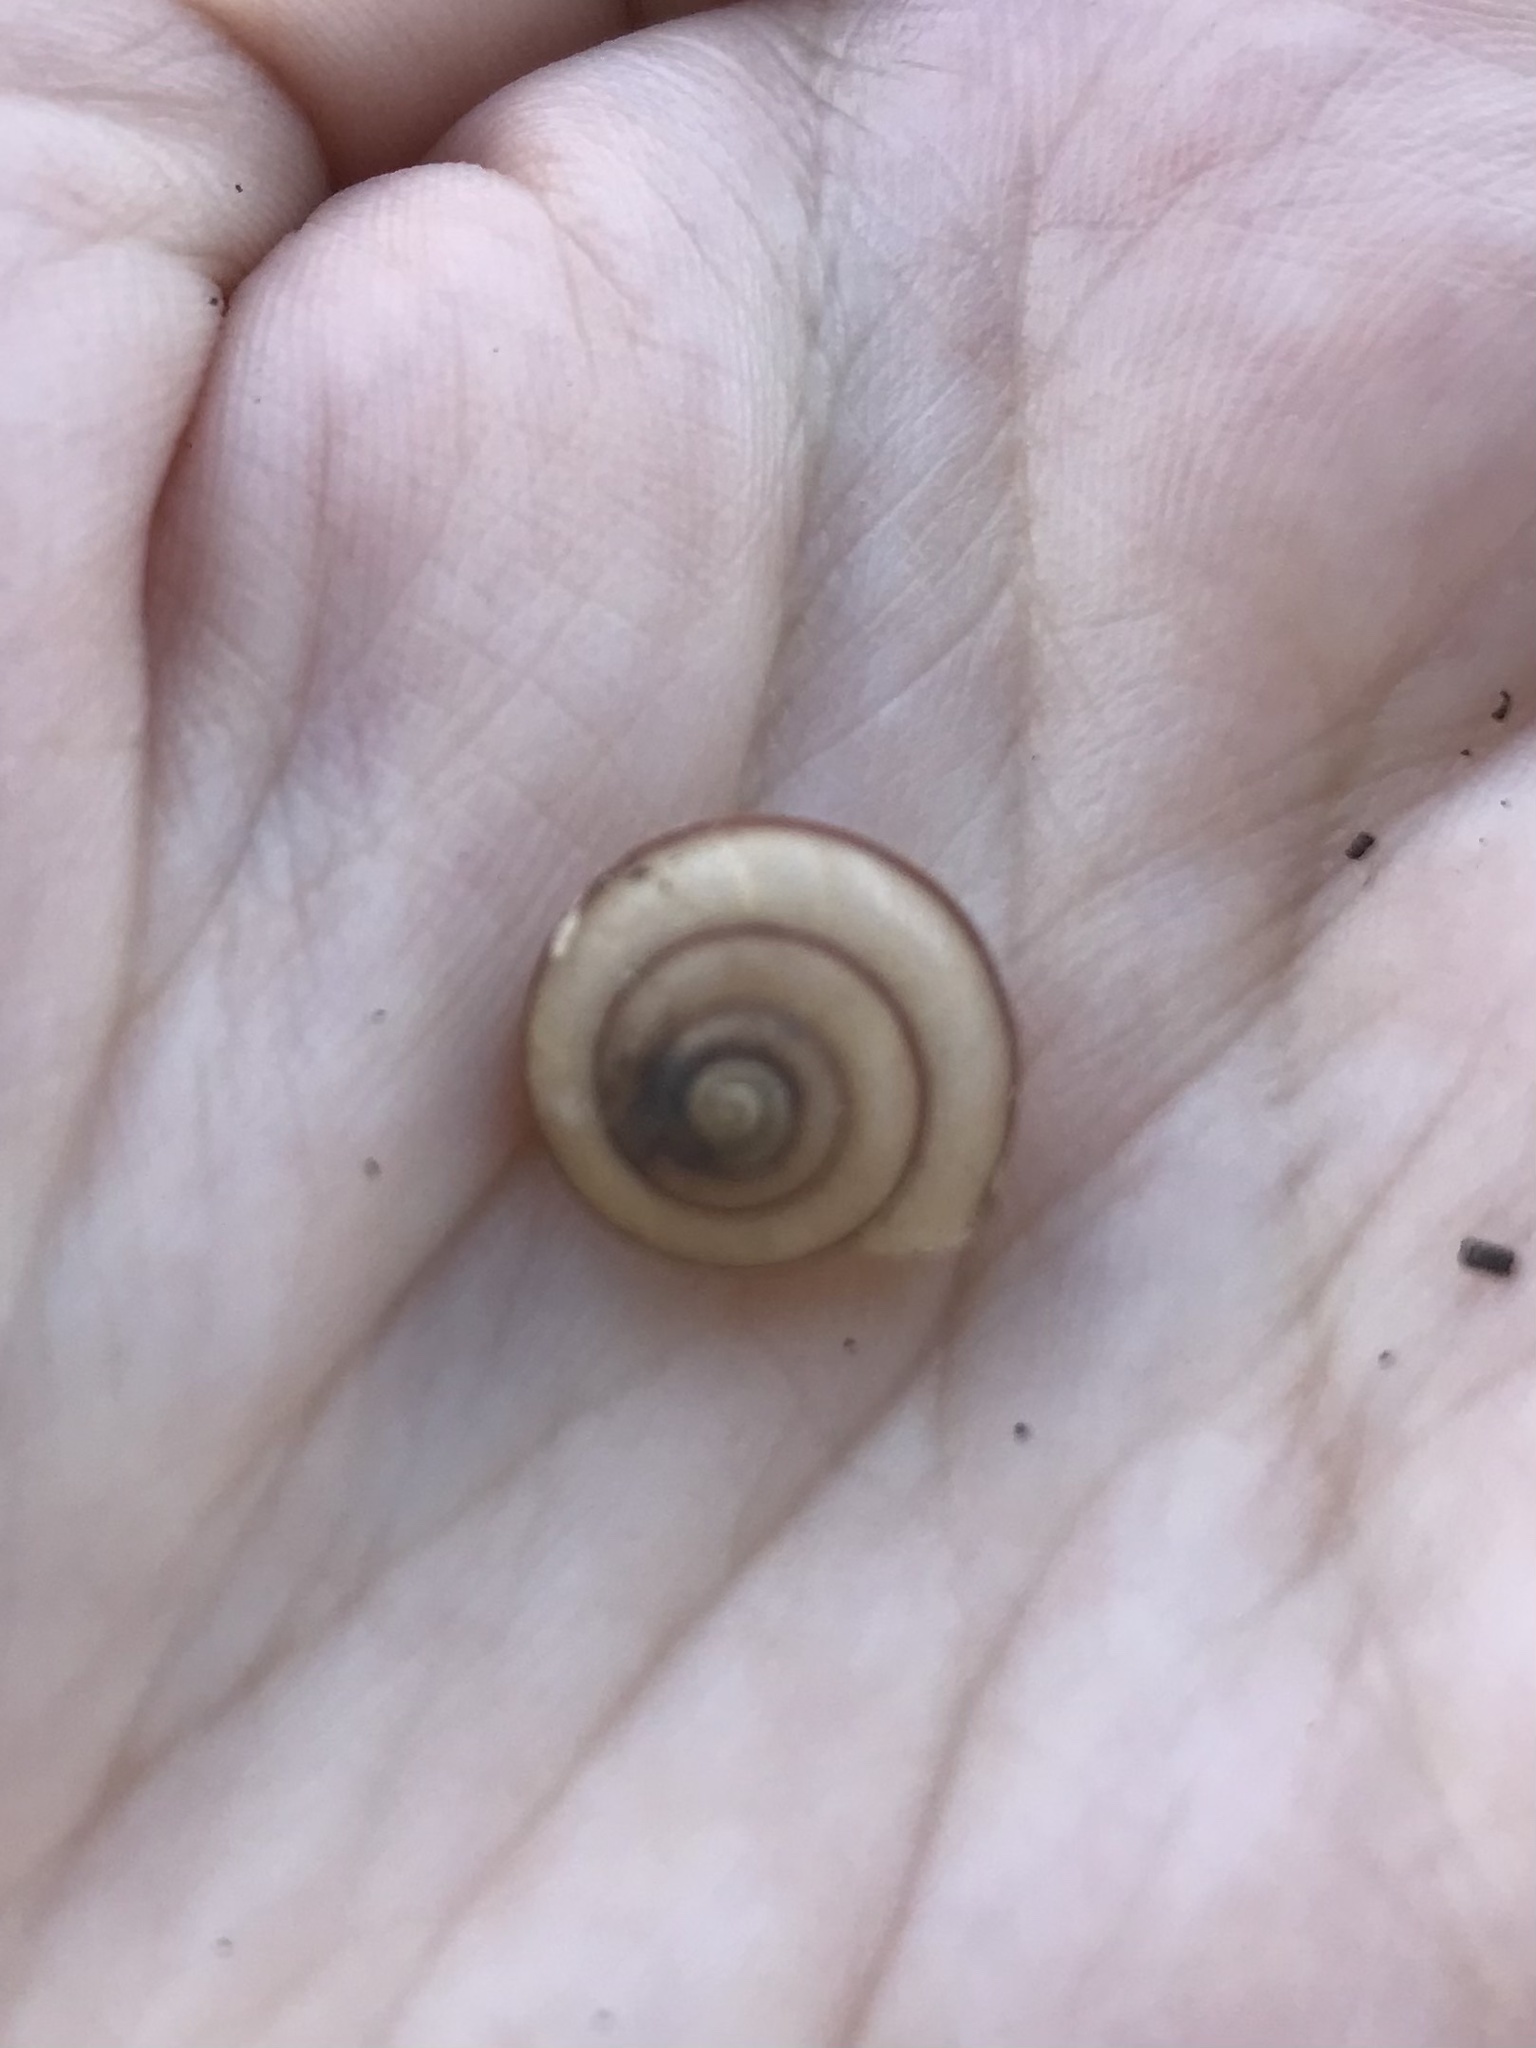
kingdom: Animalia
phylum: Mollusca
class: Gastropoda
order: Stylommatophora
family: Camaenidae
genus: Bradybaena
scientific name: Bradybaena similaris
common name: Asian trampsnail
